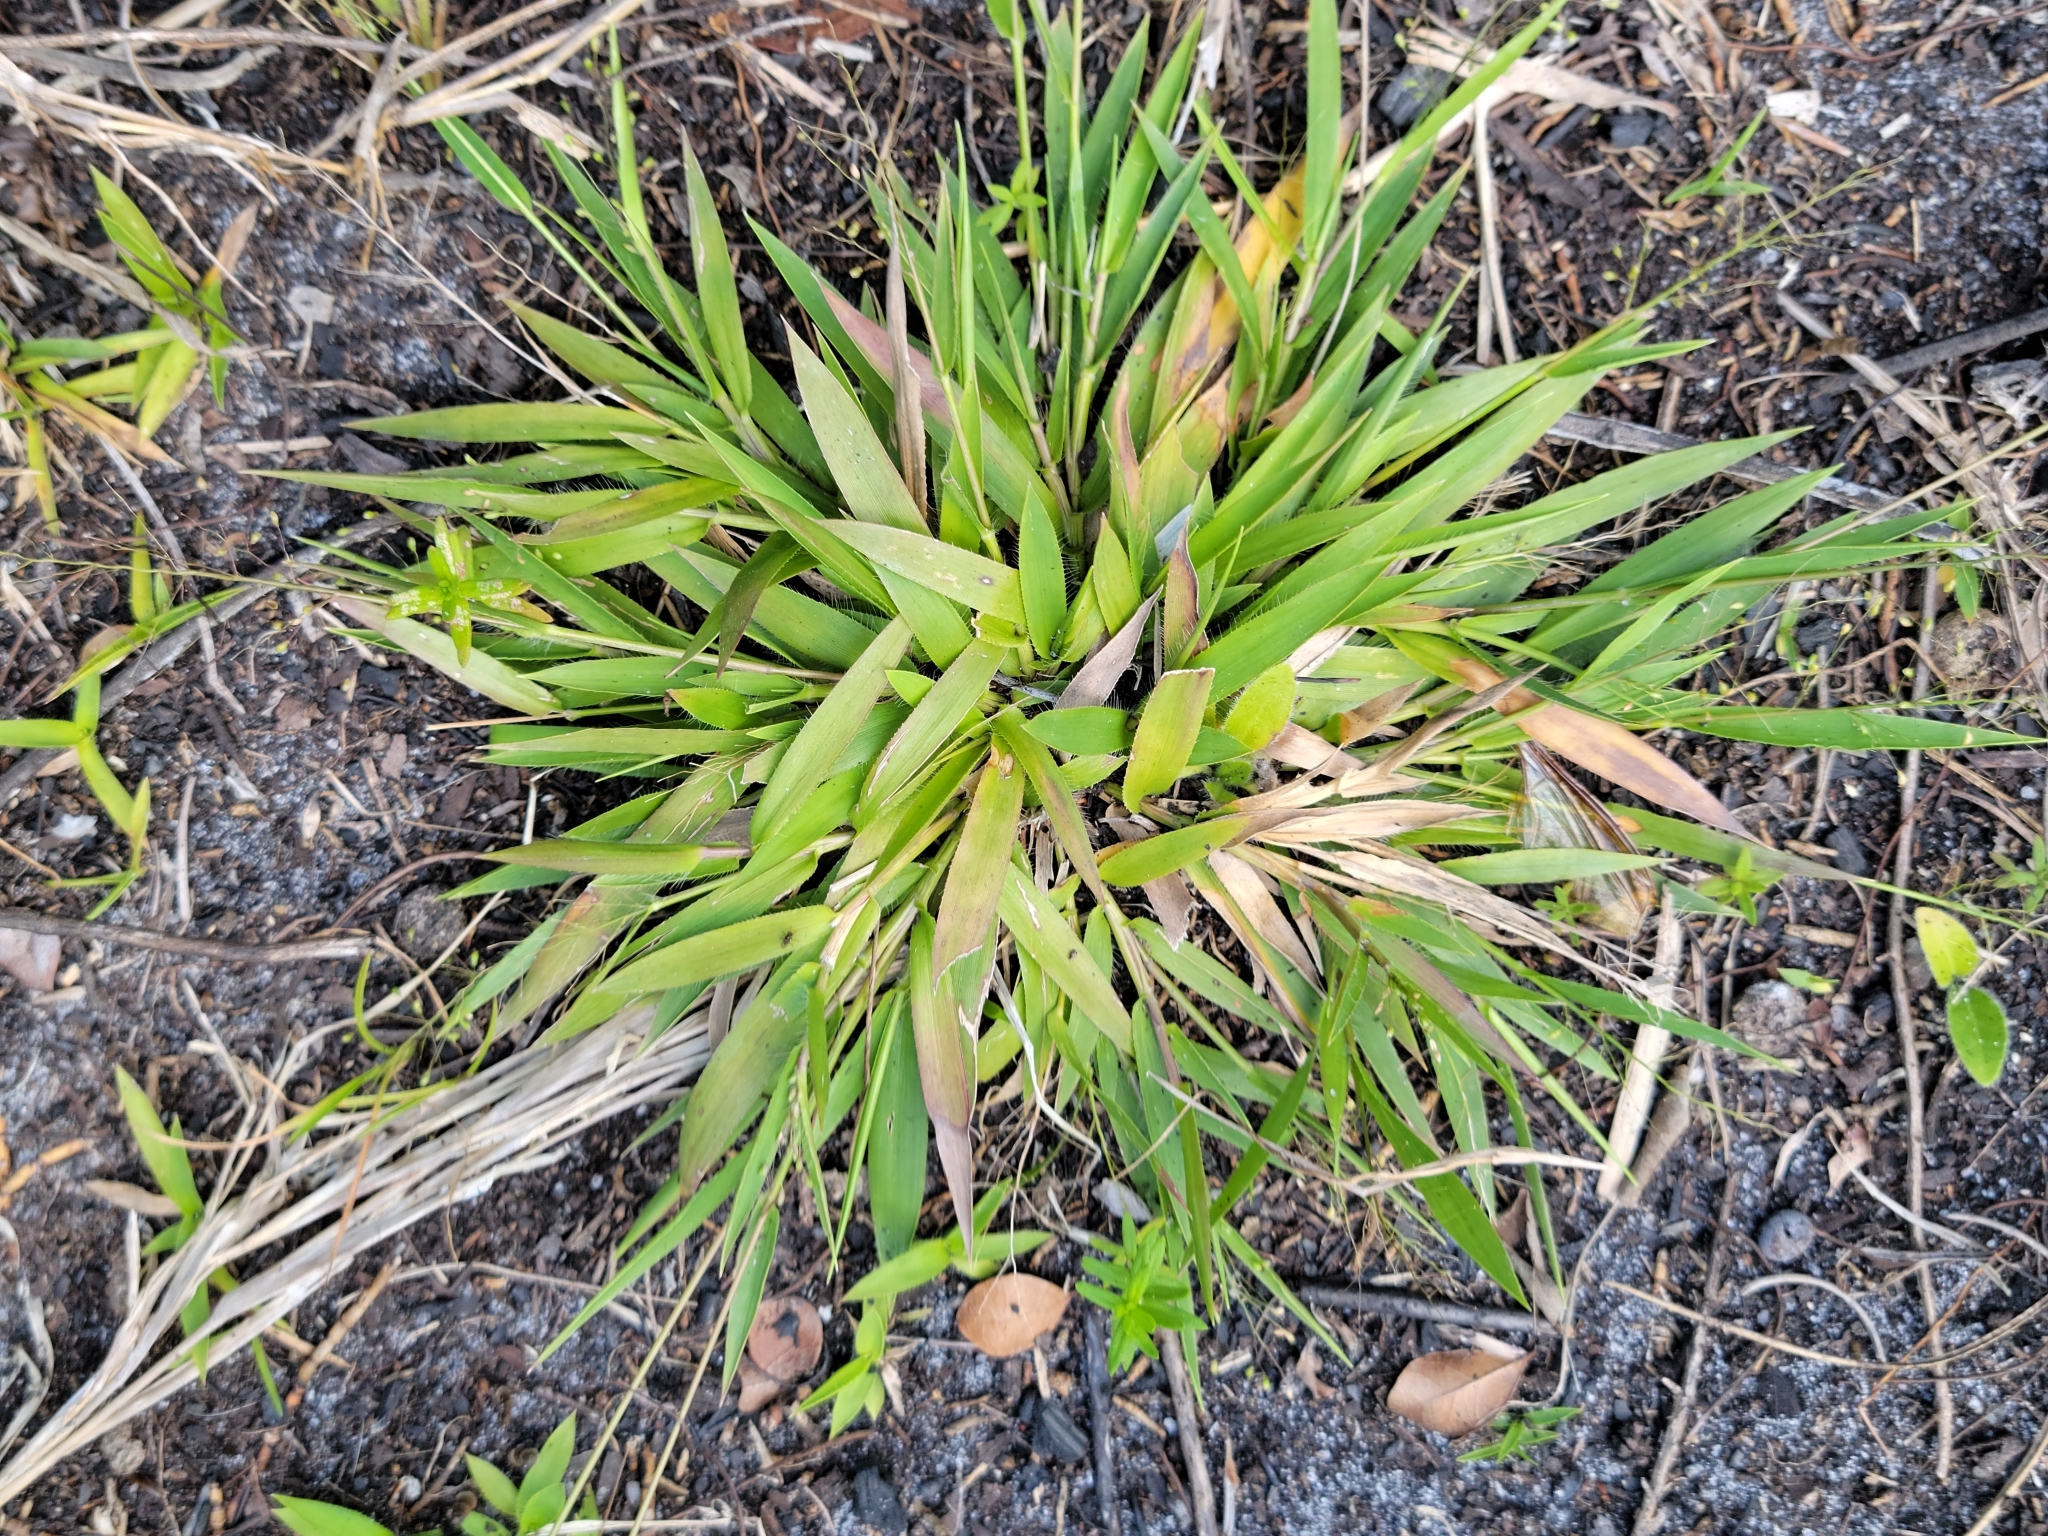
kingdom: Plantae
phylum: Tracheophyta
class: Liliopsida
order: Poales
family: Poaceae
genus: Dichanthelium
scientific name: Dichanthelium strigosum
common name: Cushion-tuft panic grass
